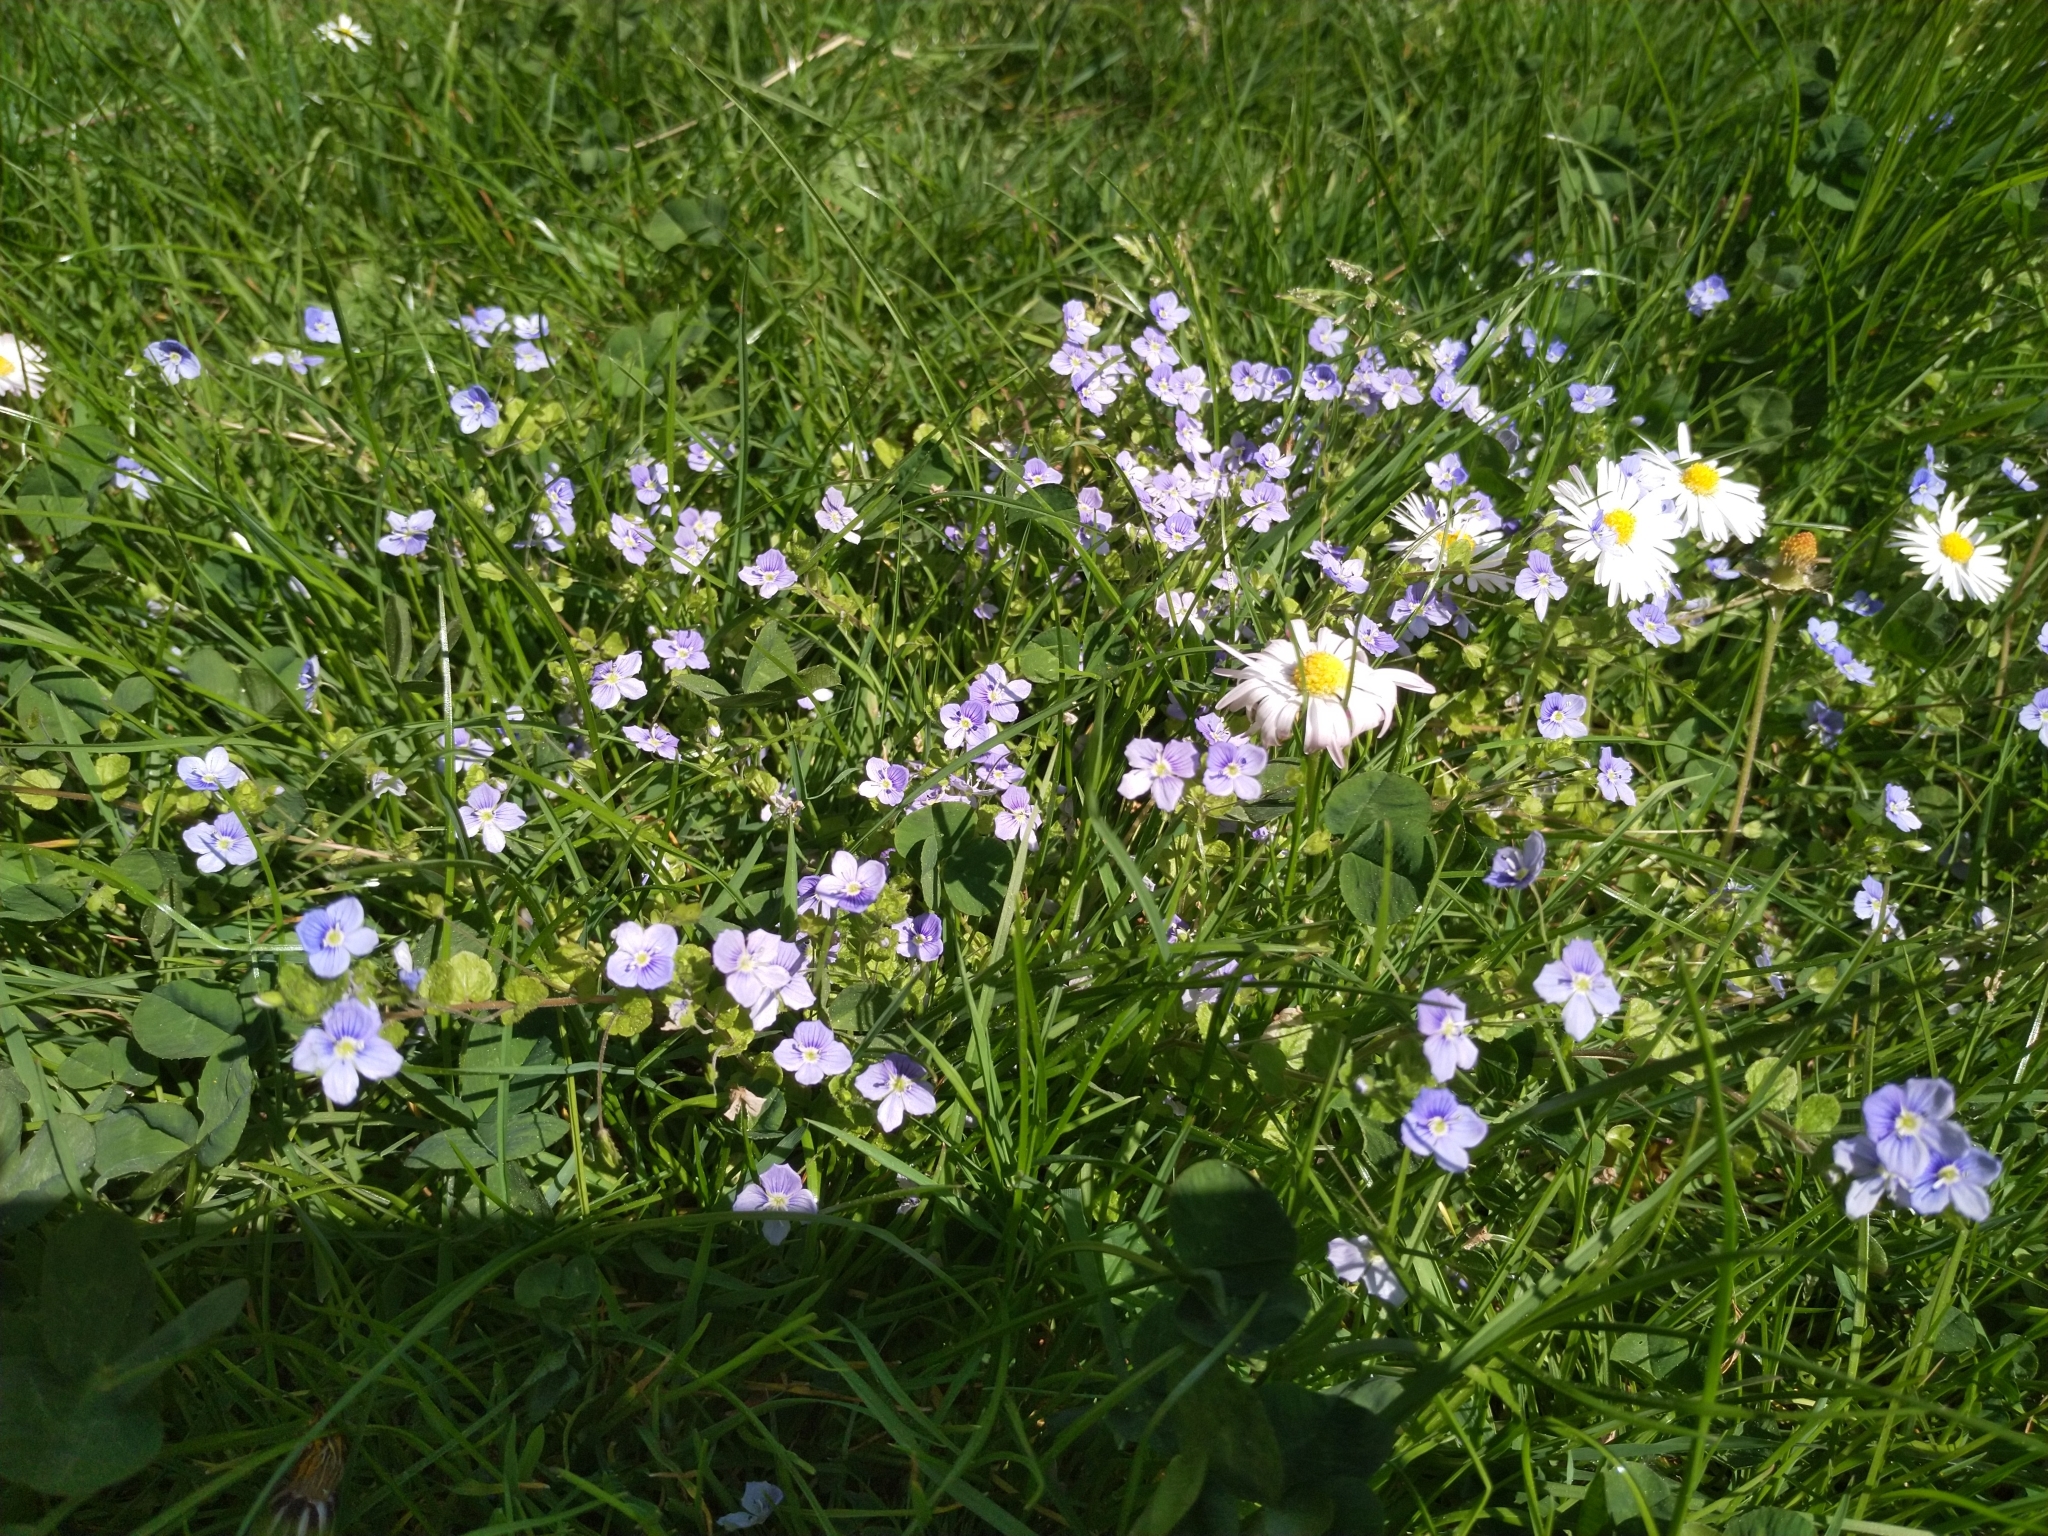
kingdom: Plantae
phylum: Tracheophyta
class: Magnoliopsida
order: Lamiales
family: Plantaginaceae
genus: Veronica
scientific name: Veronica filiformis
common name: Slender speedwell
